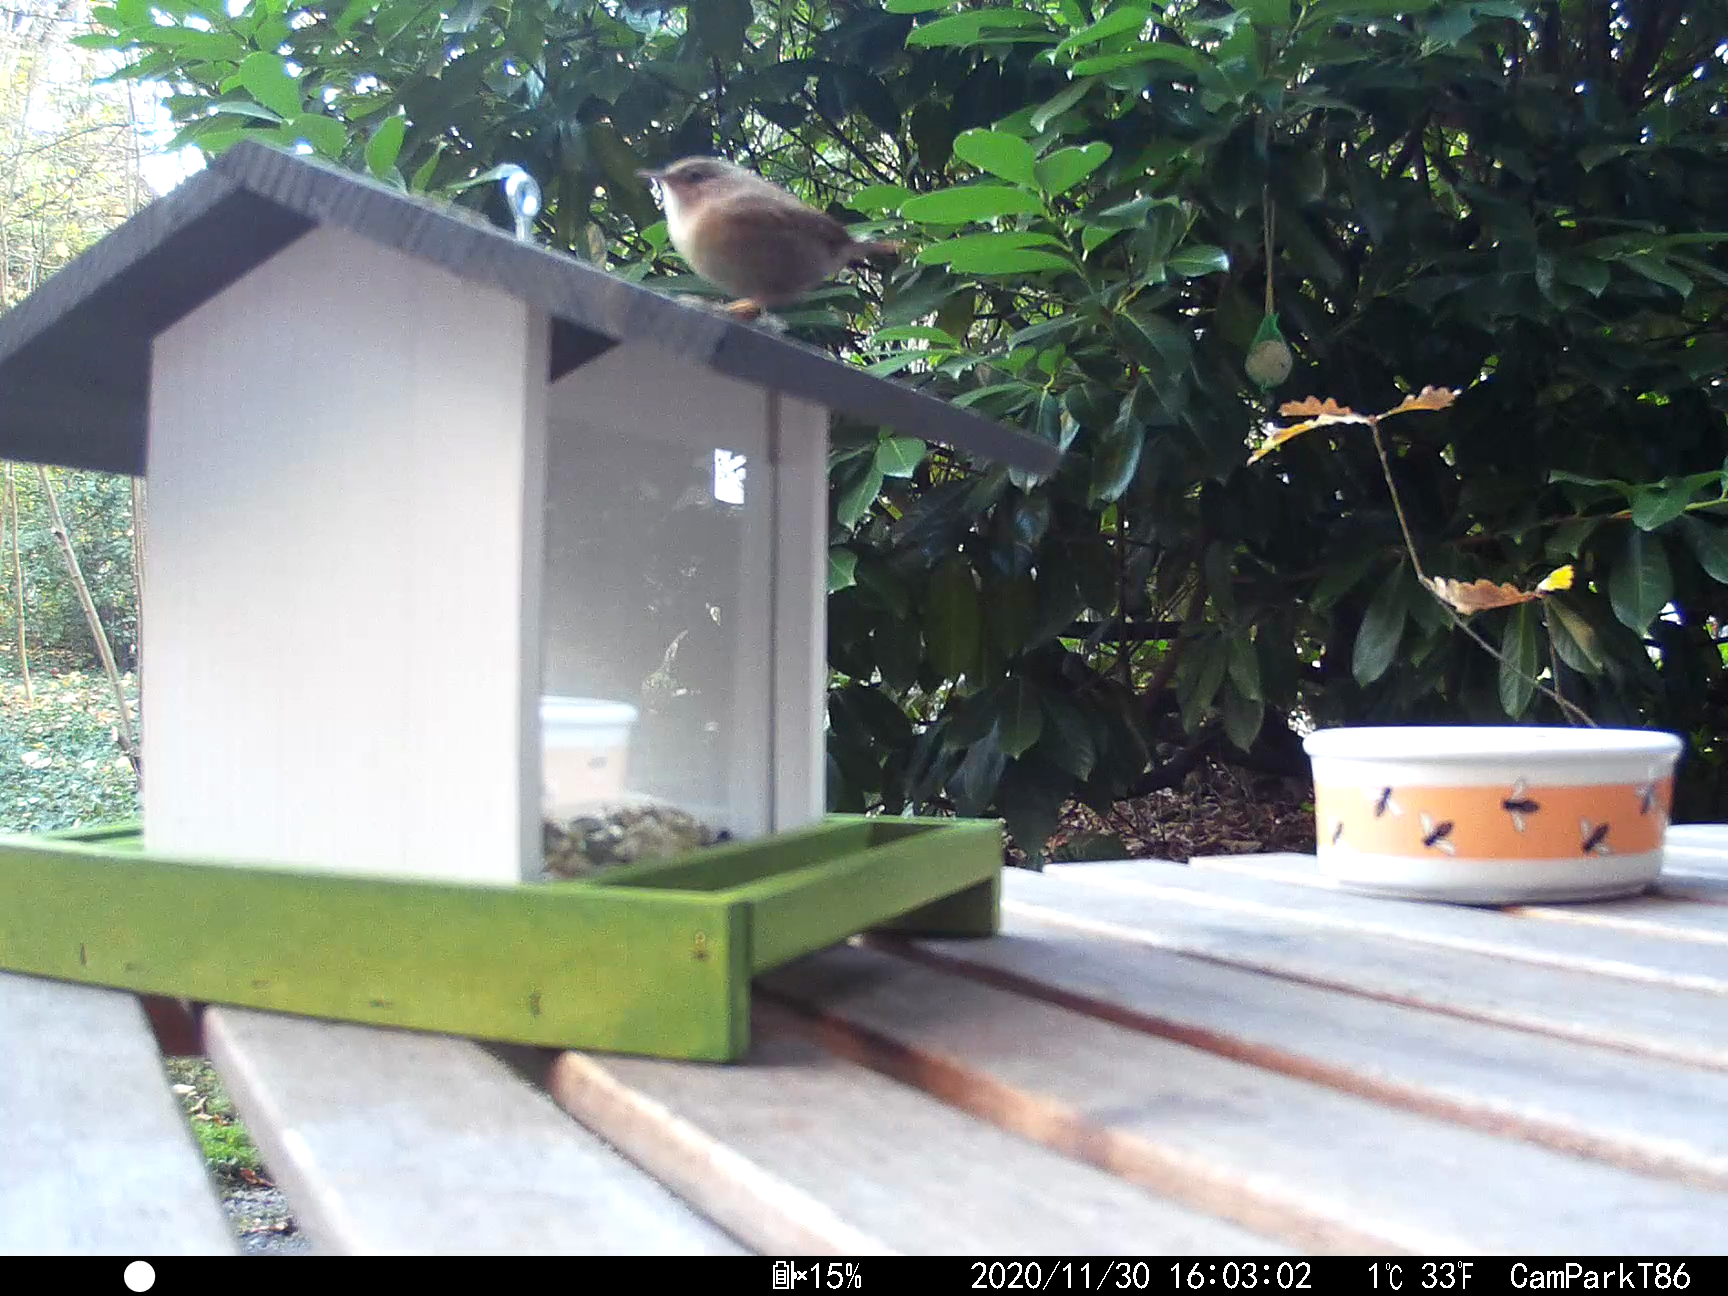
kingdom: Animalia
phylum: Chordata
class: Aves
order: Passeriformes
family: Troglodytidae
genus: Troglodytes
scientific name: Troglodytes troglodytes
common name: Eurasian wren
